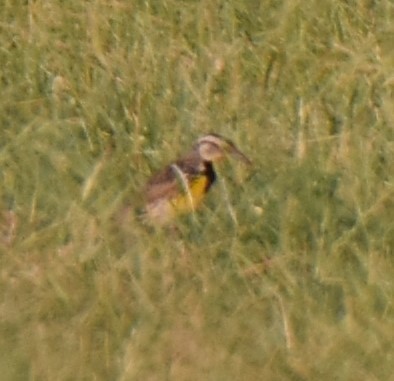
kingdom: Animalia
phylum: Chordata
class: Aves
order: Passeriformes
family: Icteridae
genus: Sturnella
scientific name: Sturnella magna
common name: Eastern meadowlark
